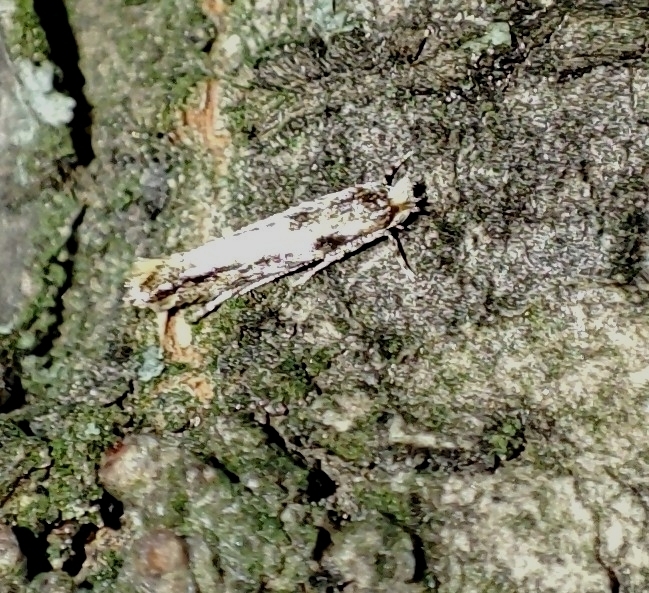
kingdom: Animalia
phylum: Arthropoda
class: Insecta
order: Lepidoptera
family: Gracillariidae
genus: Phyllonorycter
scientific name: Phyllonorycter issikii
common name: Linden midget
